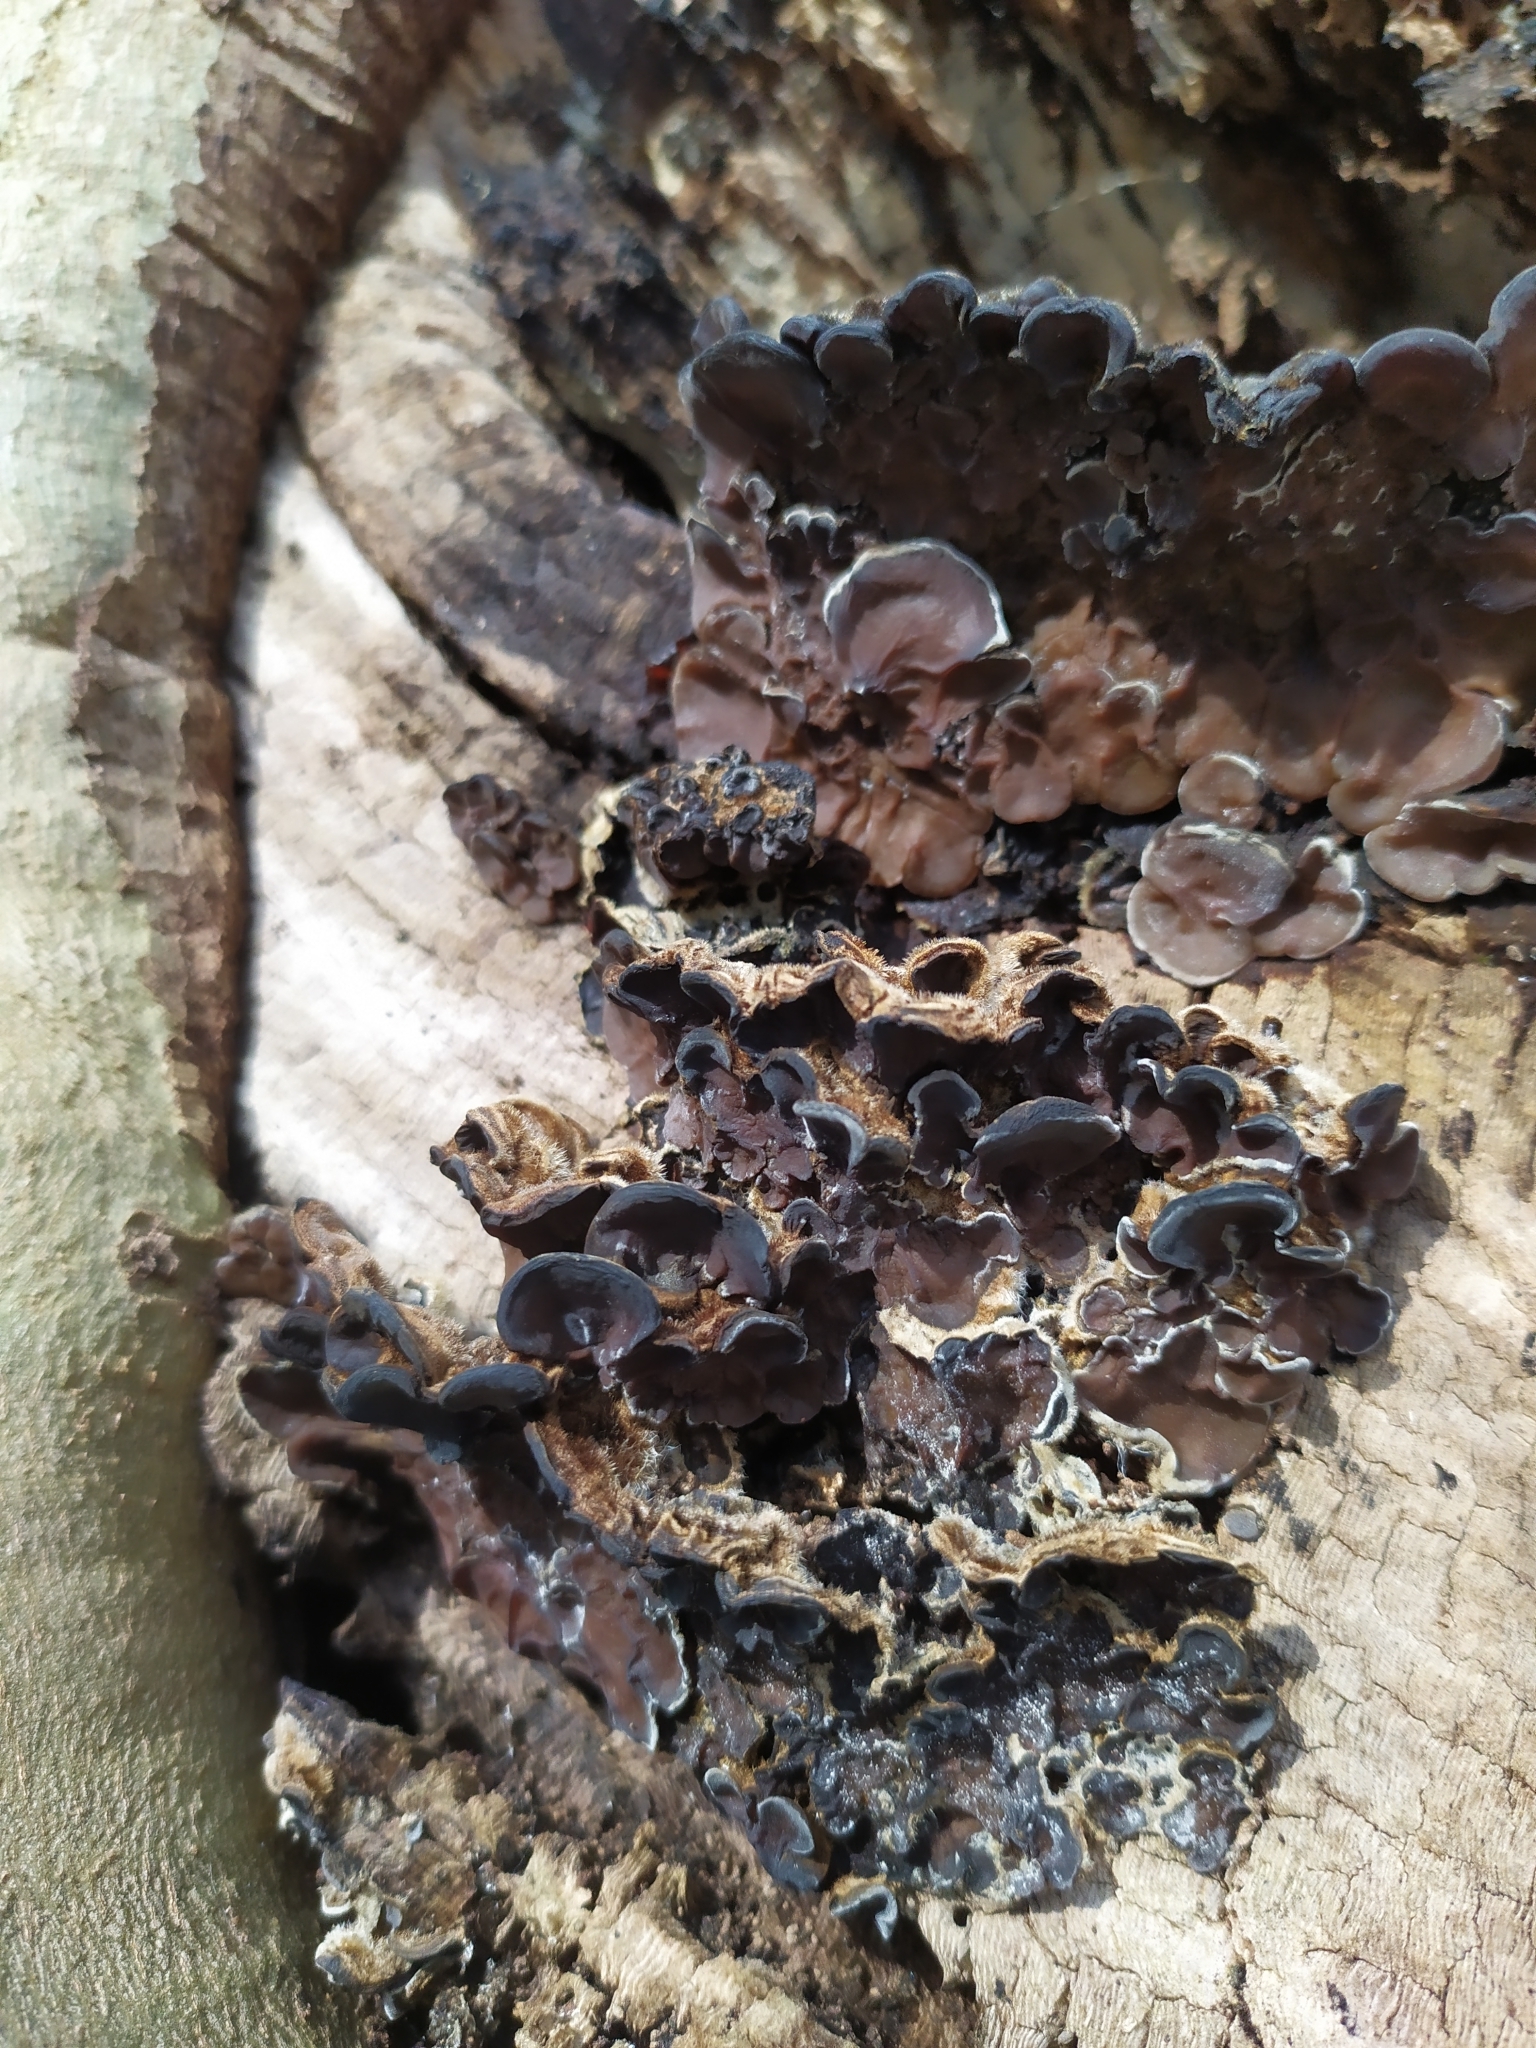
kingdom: Fungi
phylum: Basidiomycota
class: Agaricomycetes
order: Auriculariales
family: Auriculariaceae
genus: Auricularia
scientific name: Auricularia mesenterica
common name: Tripe fungus
